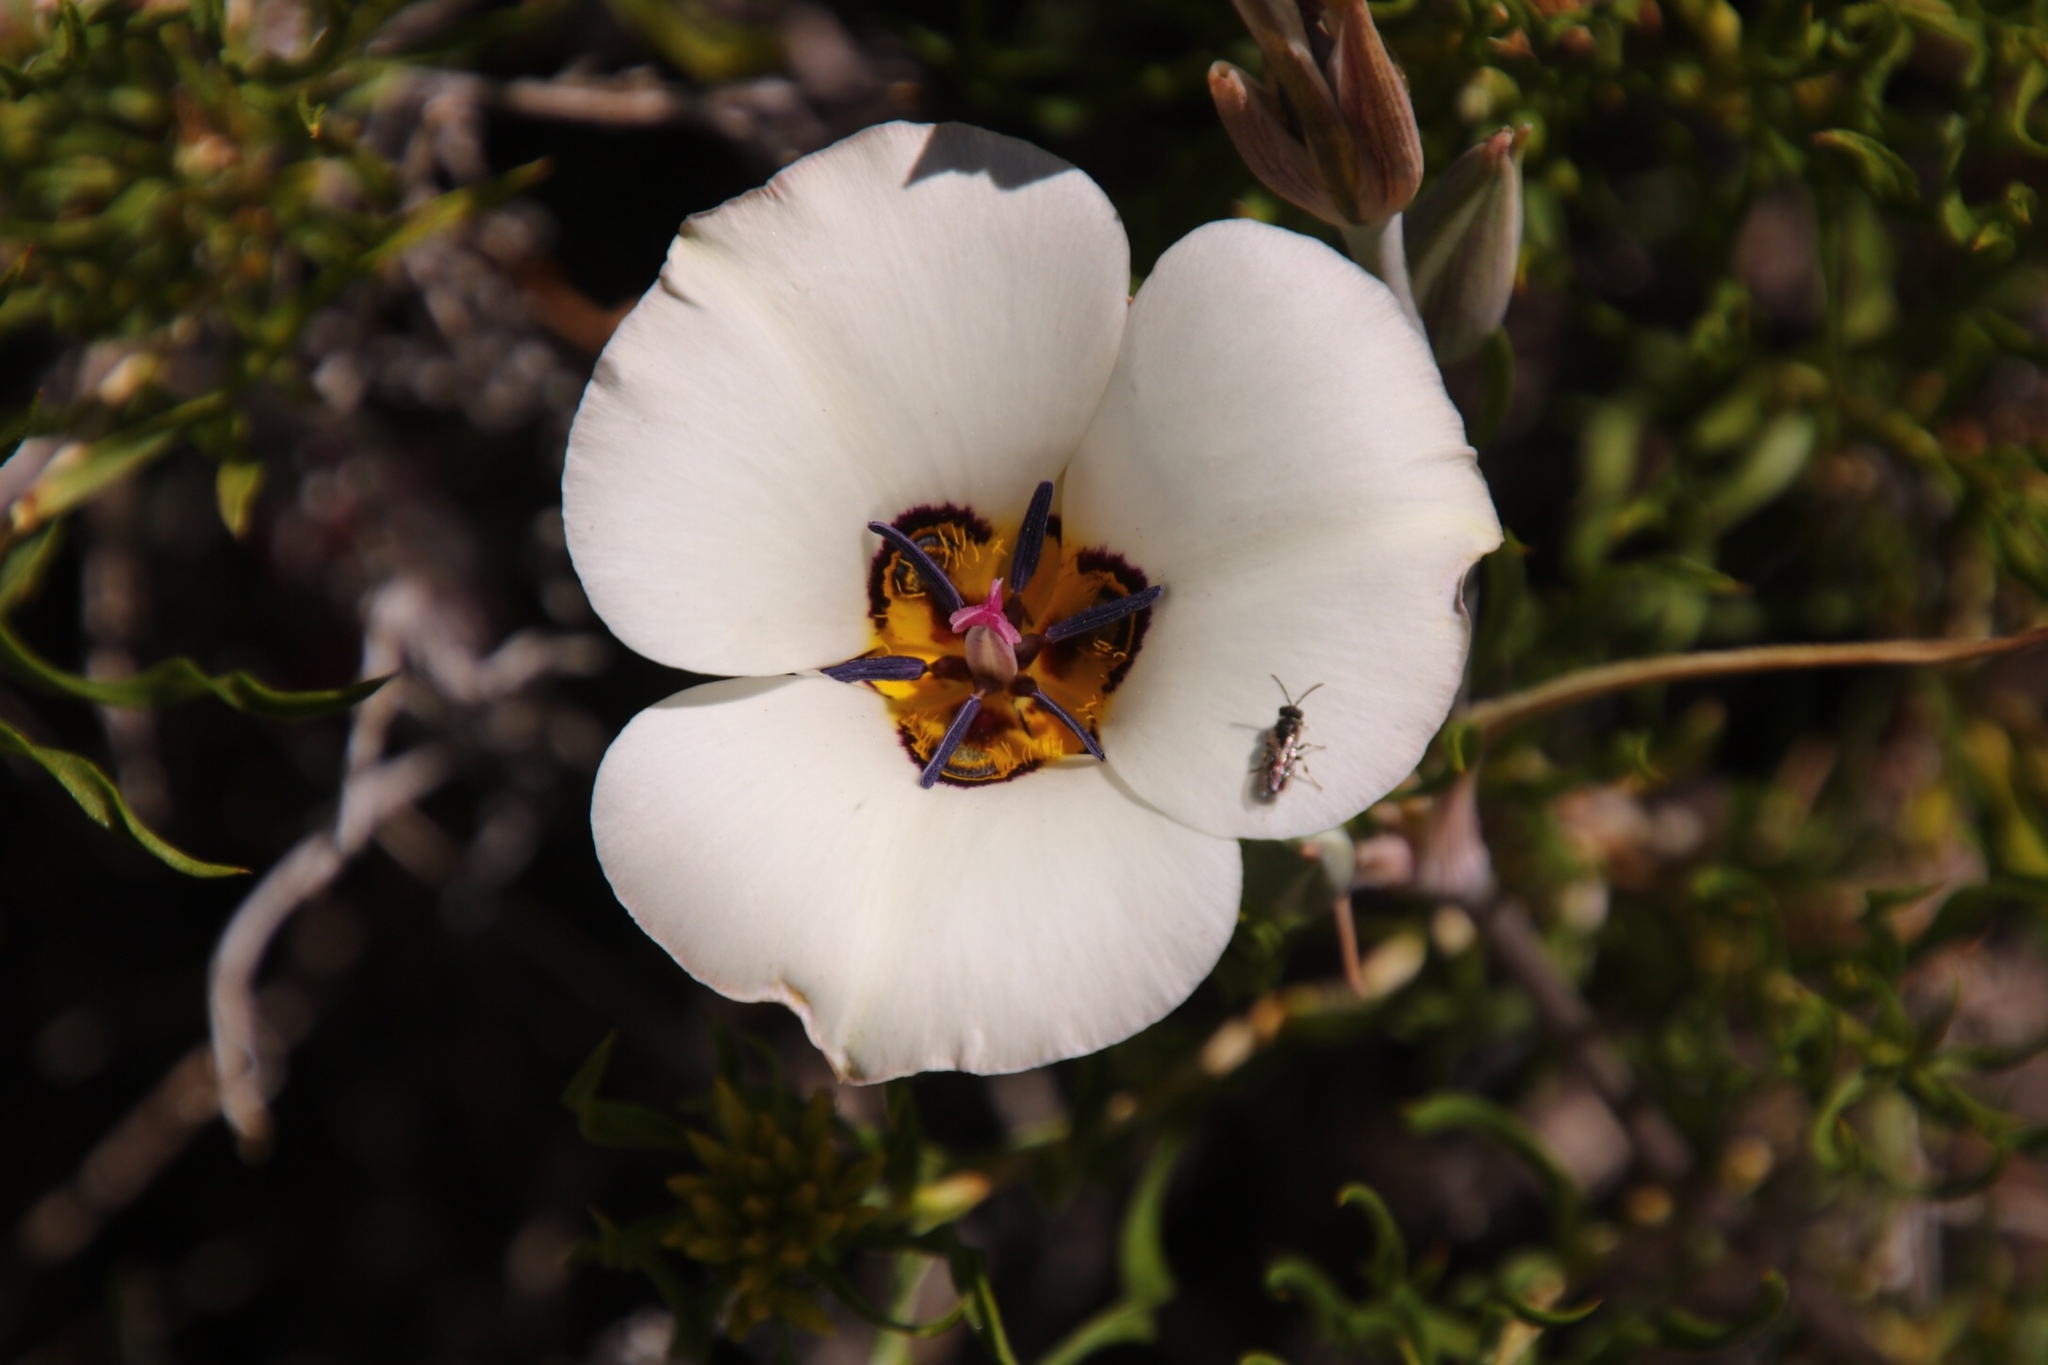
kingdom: Plantae
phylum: Tracheophyta
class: Liliopsida
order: Liliales
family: Liliaceae
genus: Calochortus
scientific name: Calochortus bruneaunis
